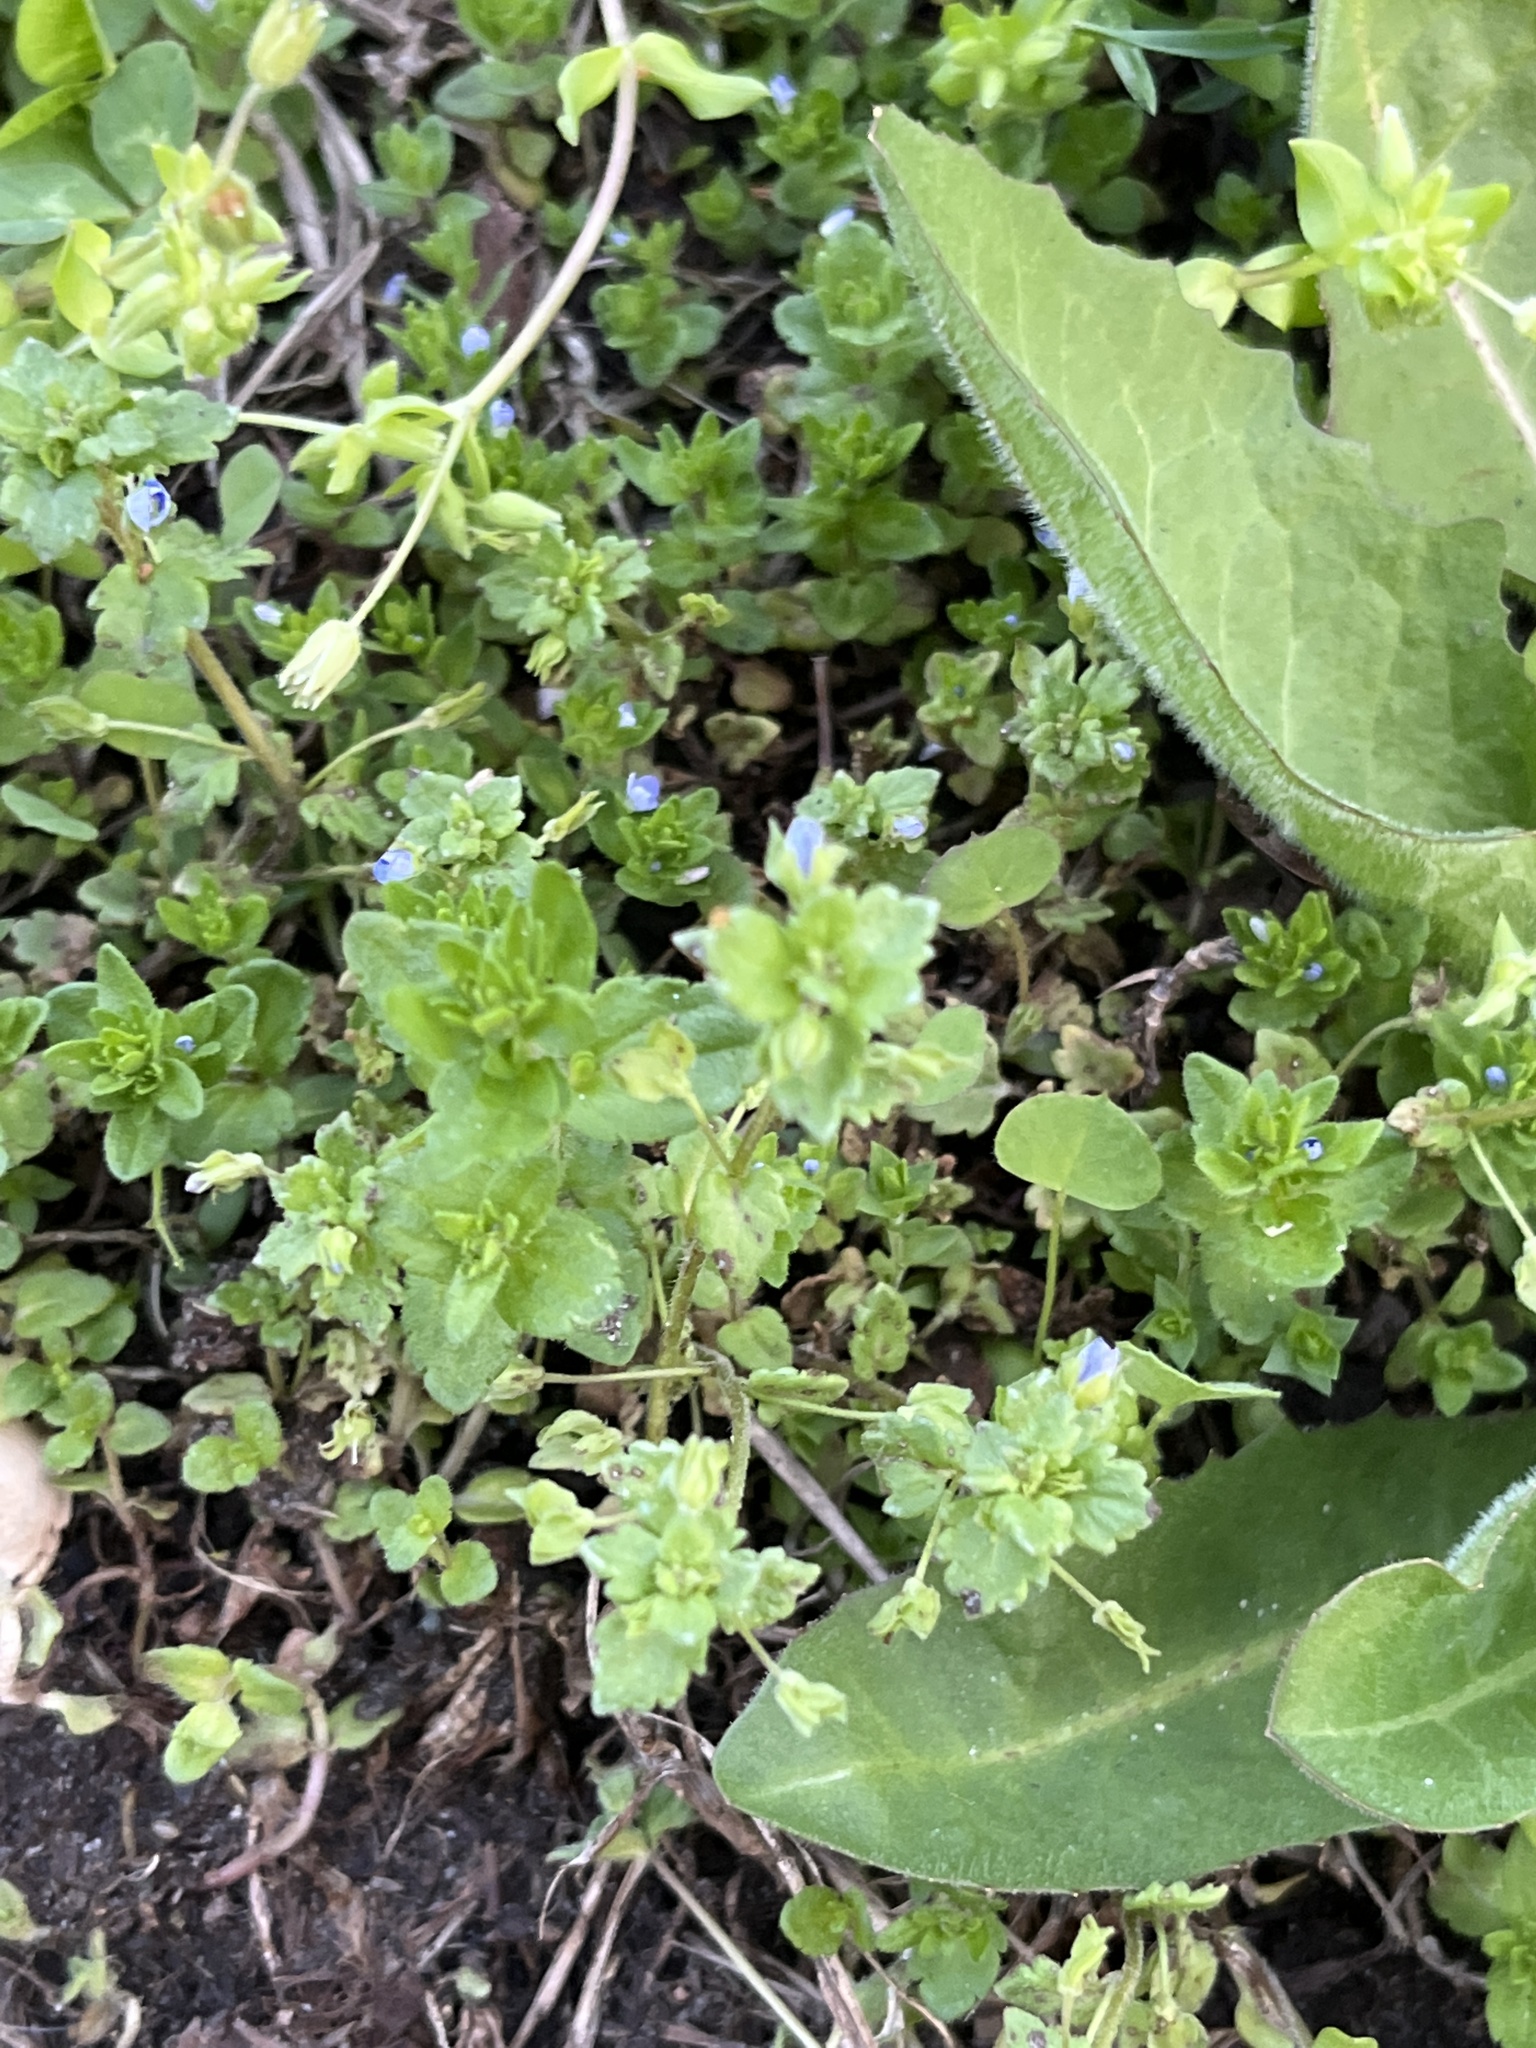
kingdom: Plantae
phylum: Tracheophyta
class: Magnoliopsida
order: Lamiales
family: Plantaginaceae
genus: Veronica
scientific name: Veronica polita
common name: Grey field-speedwell
